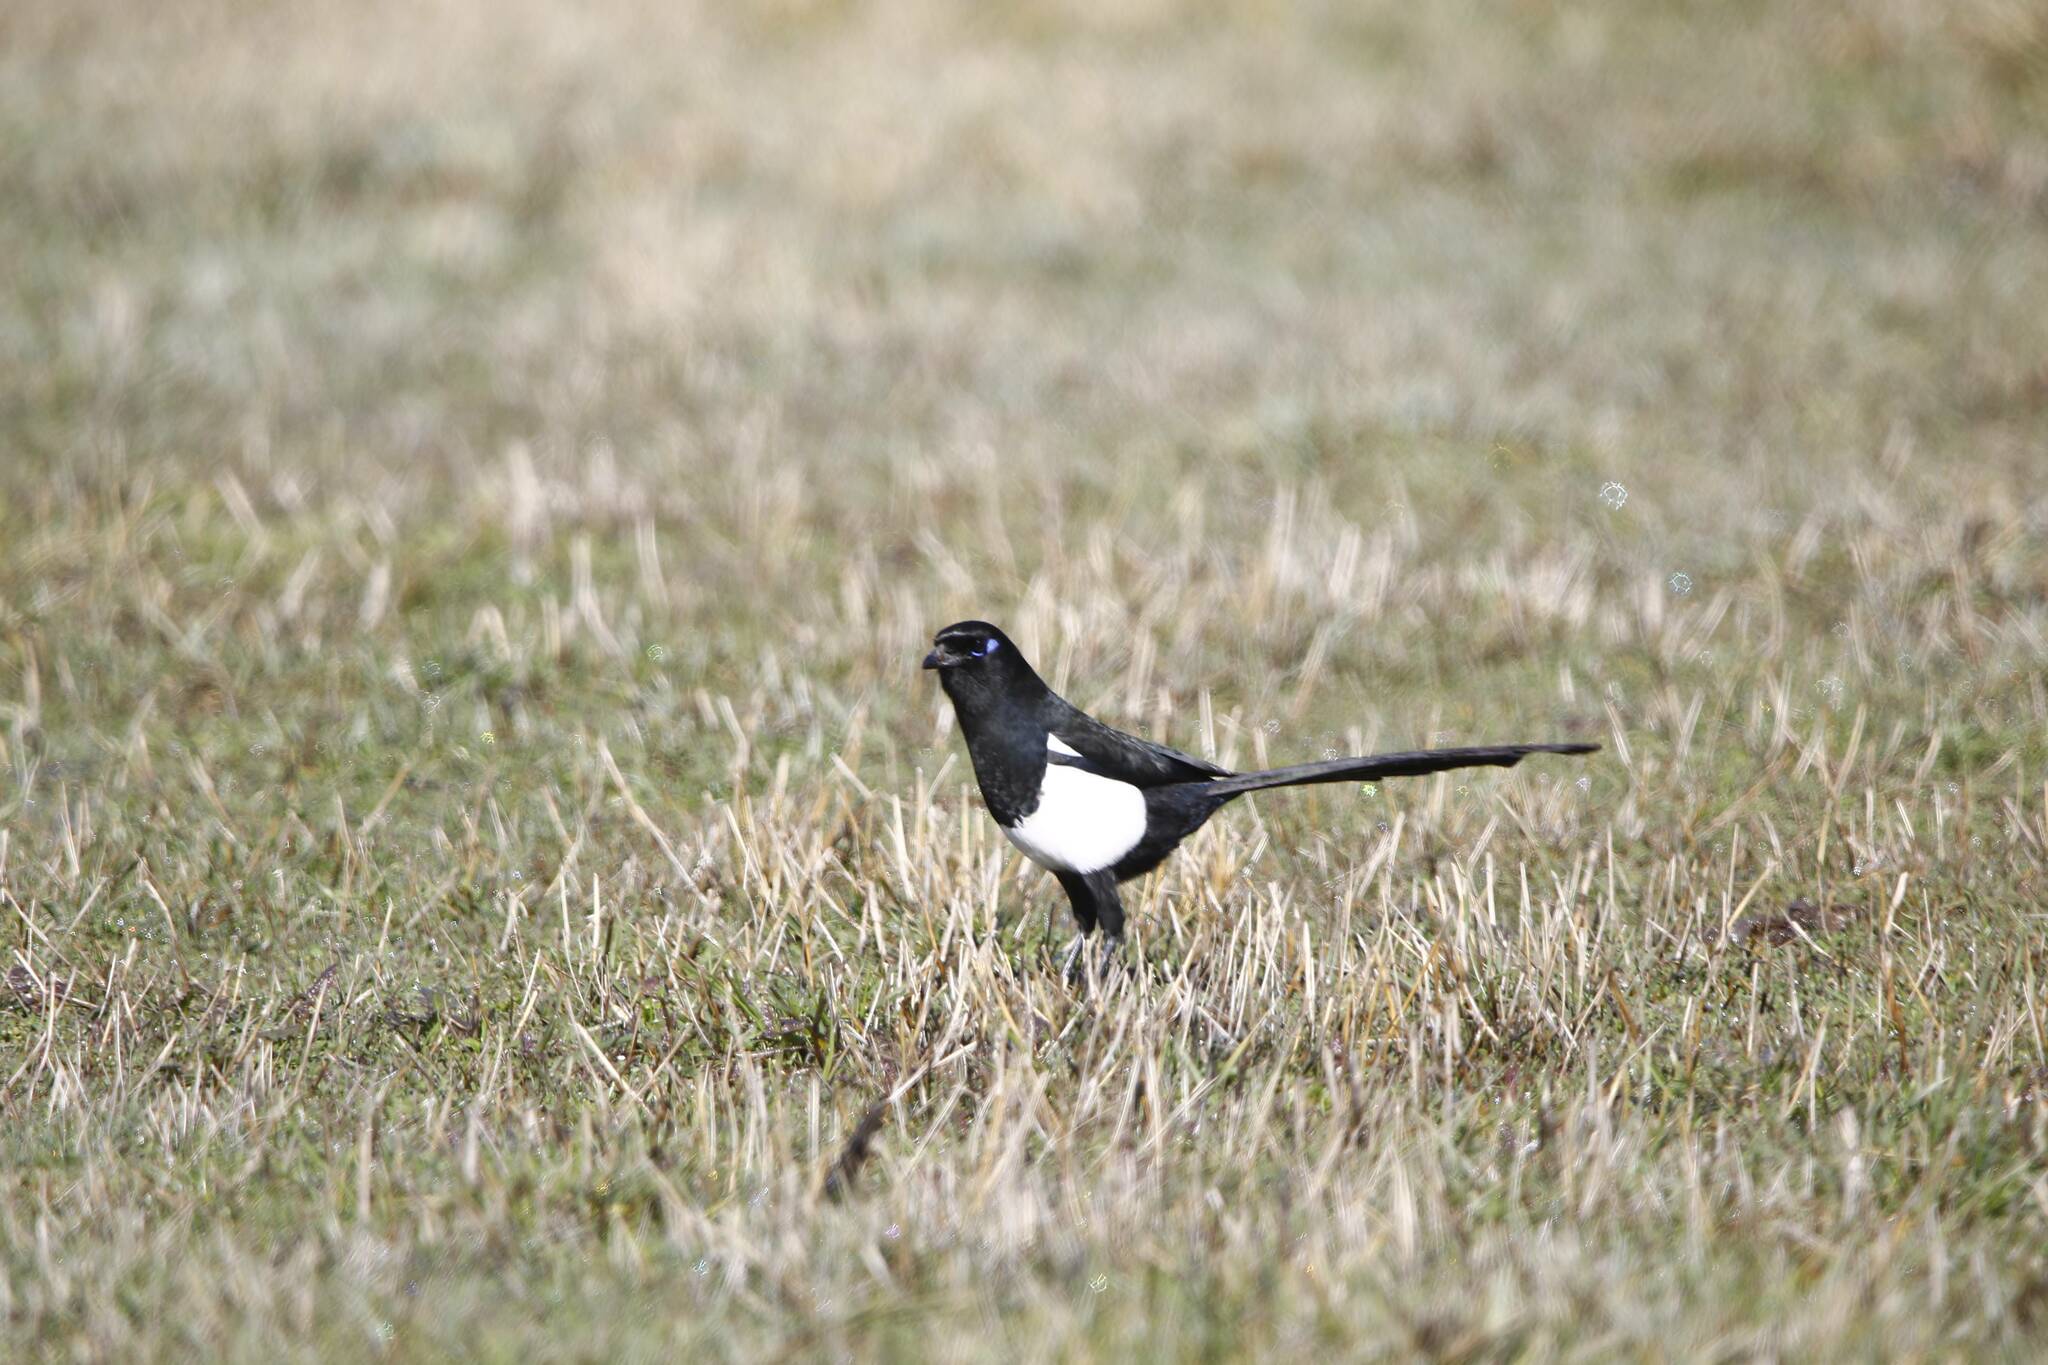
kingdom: Animalia
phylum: Chordata
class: Aves
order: Passeriformes
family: Corvidae
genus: Pica
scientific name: Pica mauritanica
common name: Maghreb magpie
